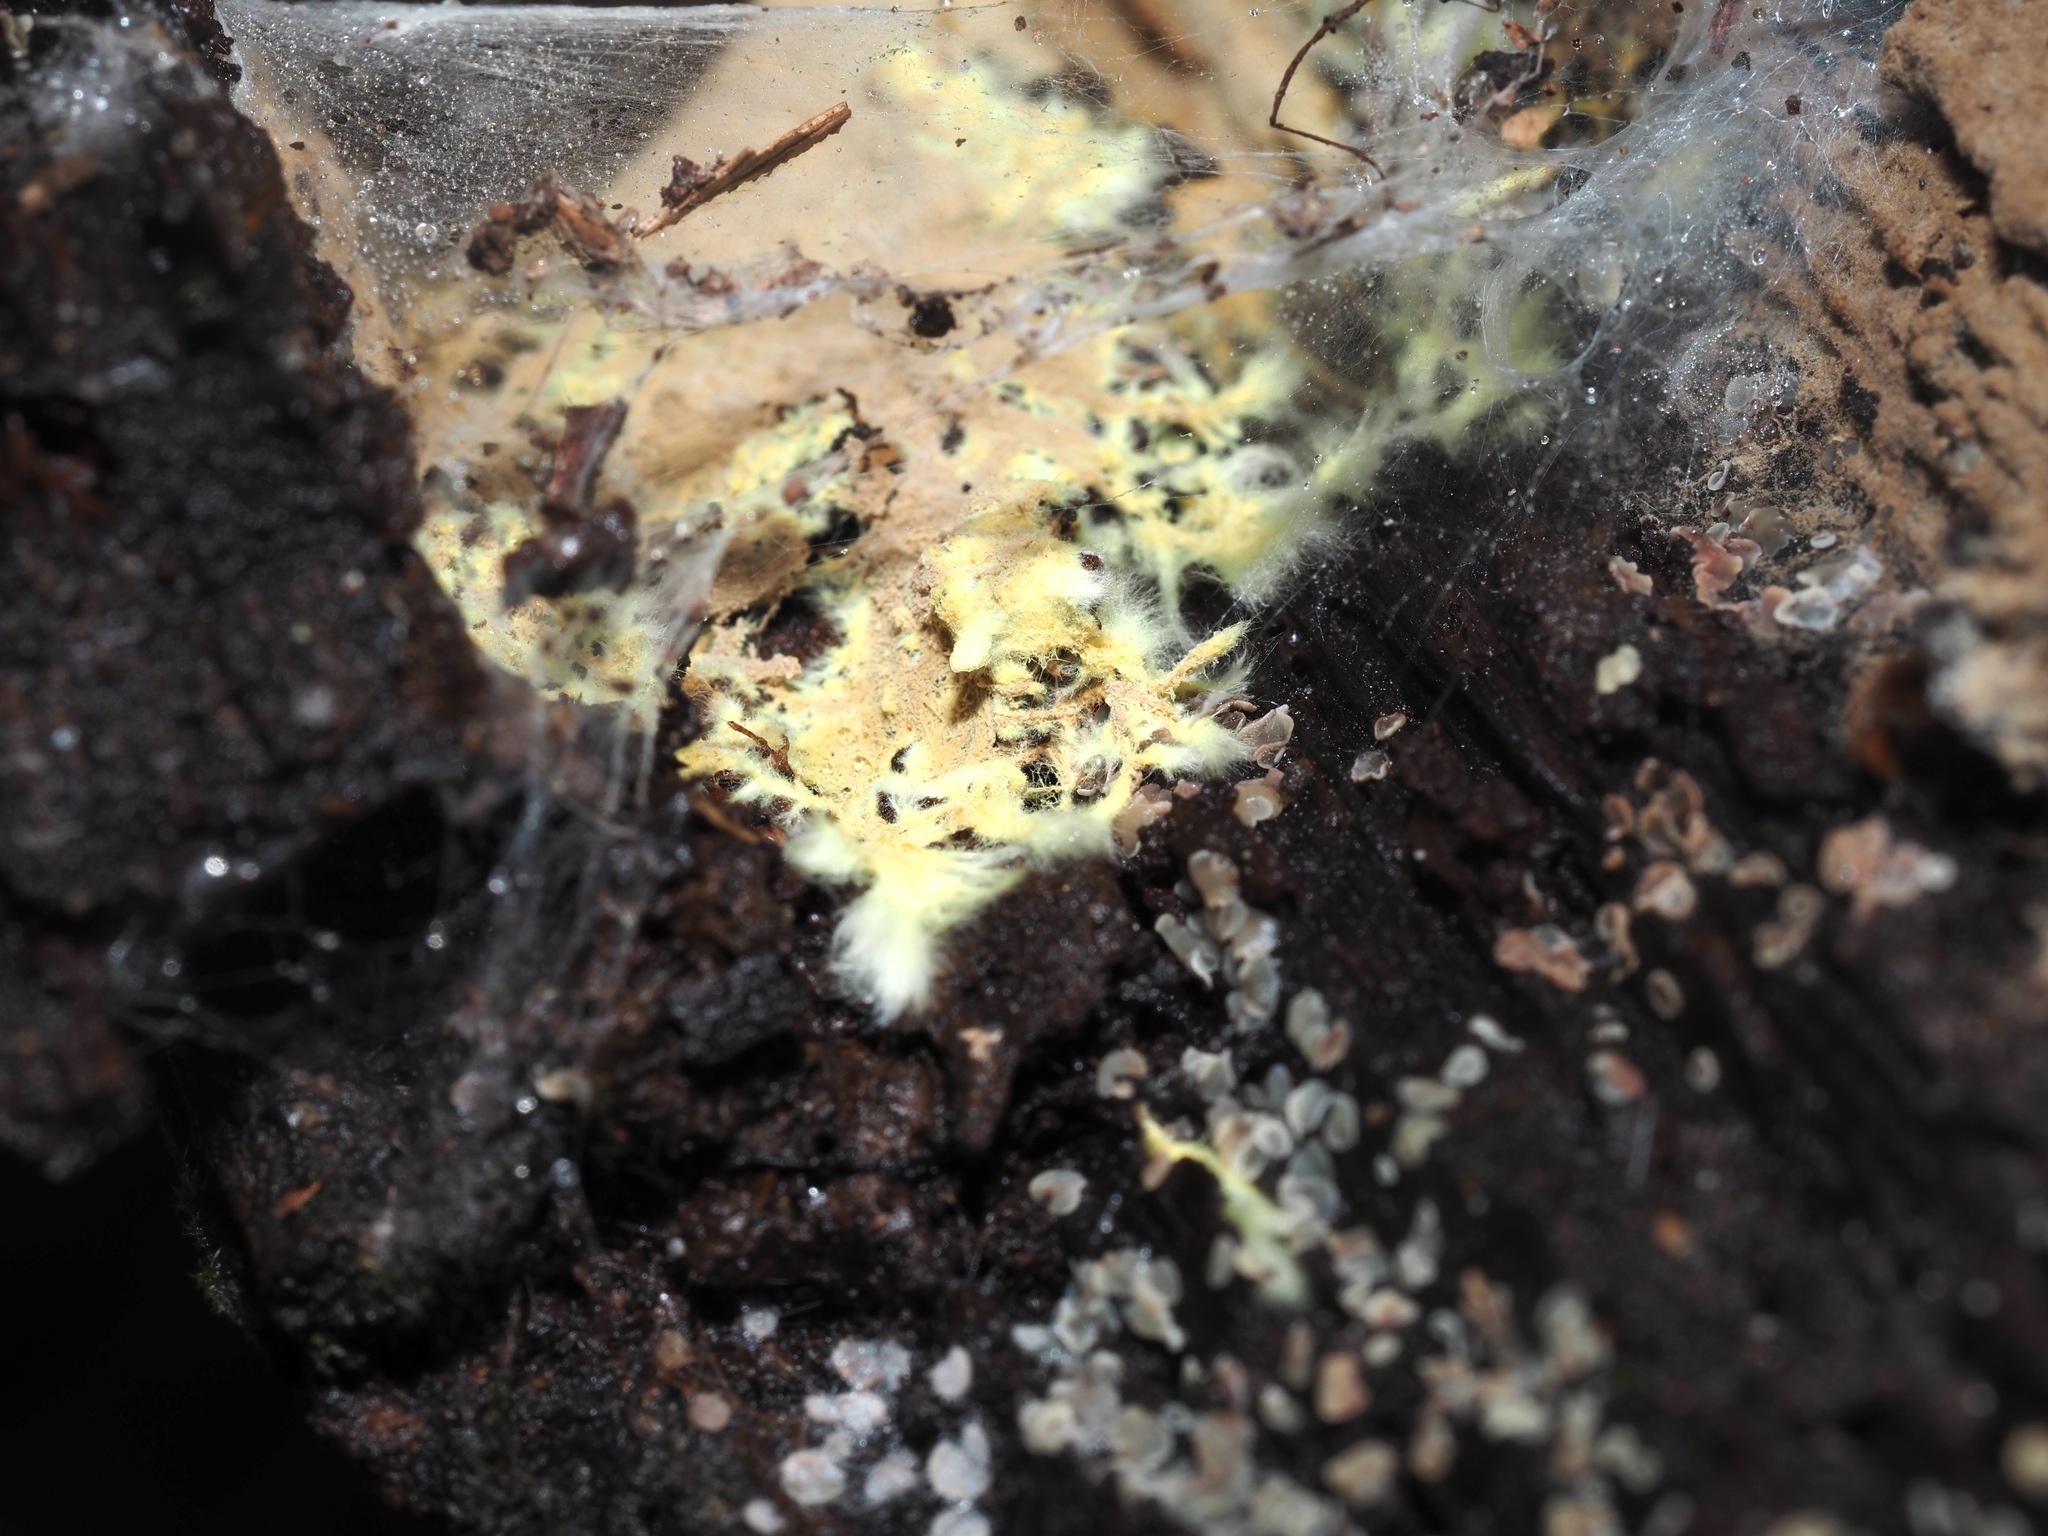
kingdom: Fungi
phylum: Basidiomycota
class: Agaricomycetes
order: Russulales
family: Xenasmataceae
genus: Xenasmatella
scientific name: Xenasmatella vaga
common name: Yellow cobweb
